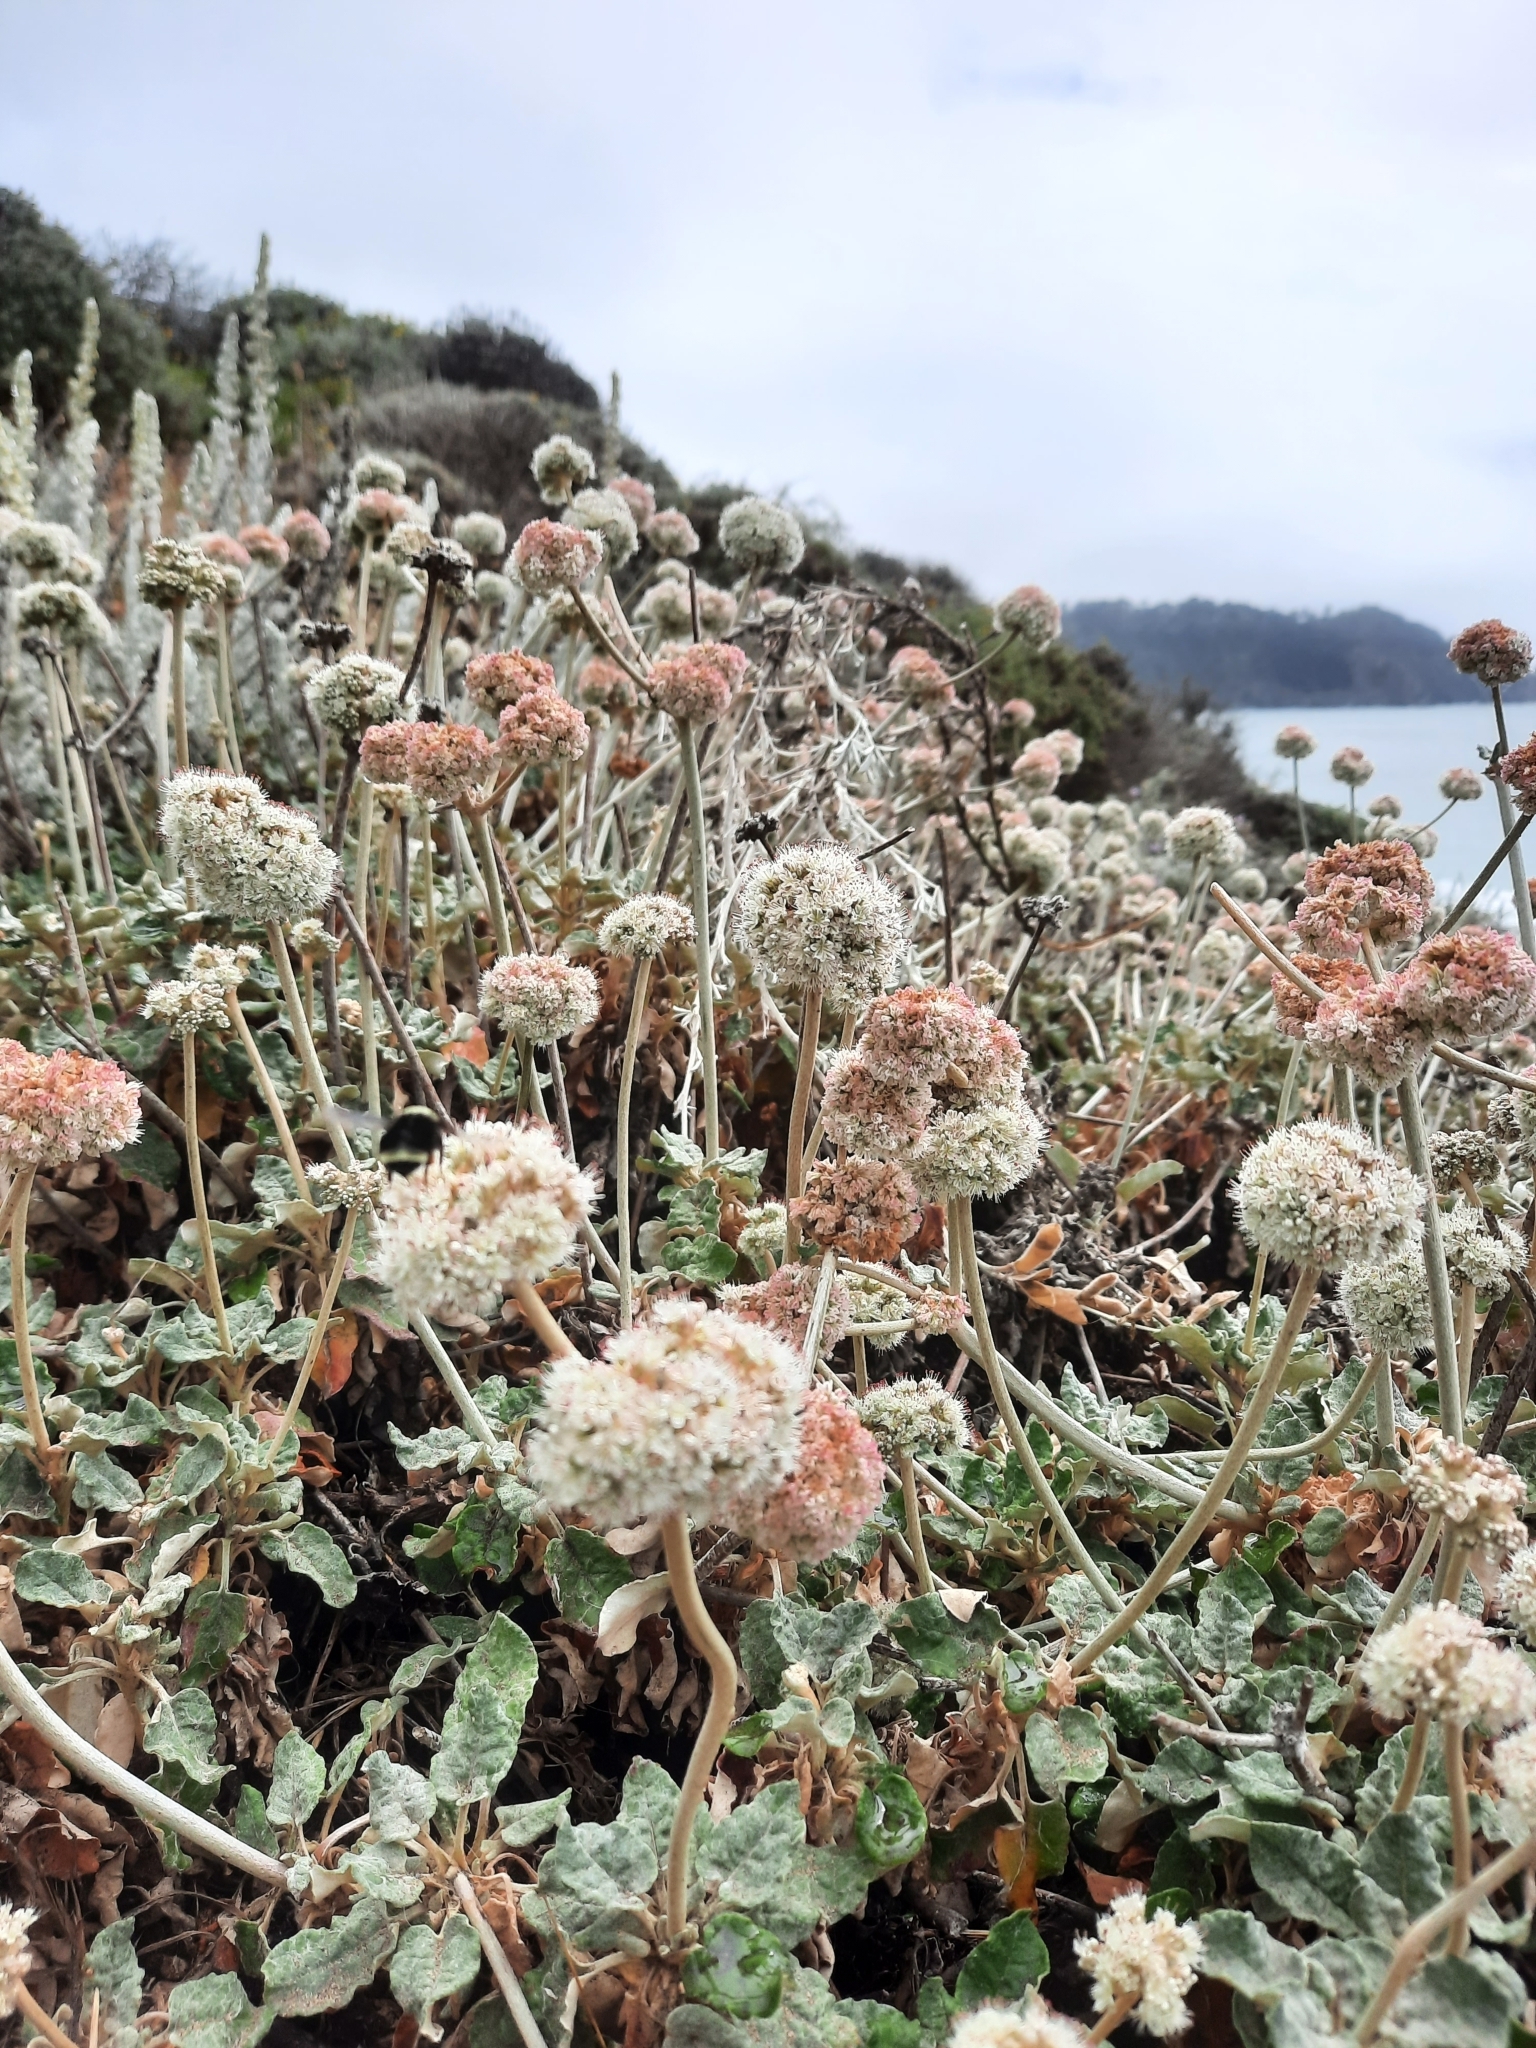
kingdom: Plantae
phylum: Tracheophyta
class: Magnoliopsida
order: Caryophyllales
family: Polygonaceae
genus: Eriogonum
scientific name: Eriogonum latifolium
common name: Seaside wild buckwheat
